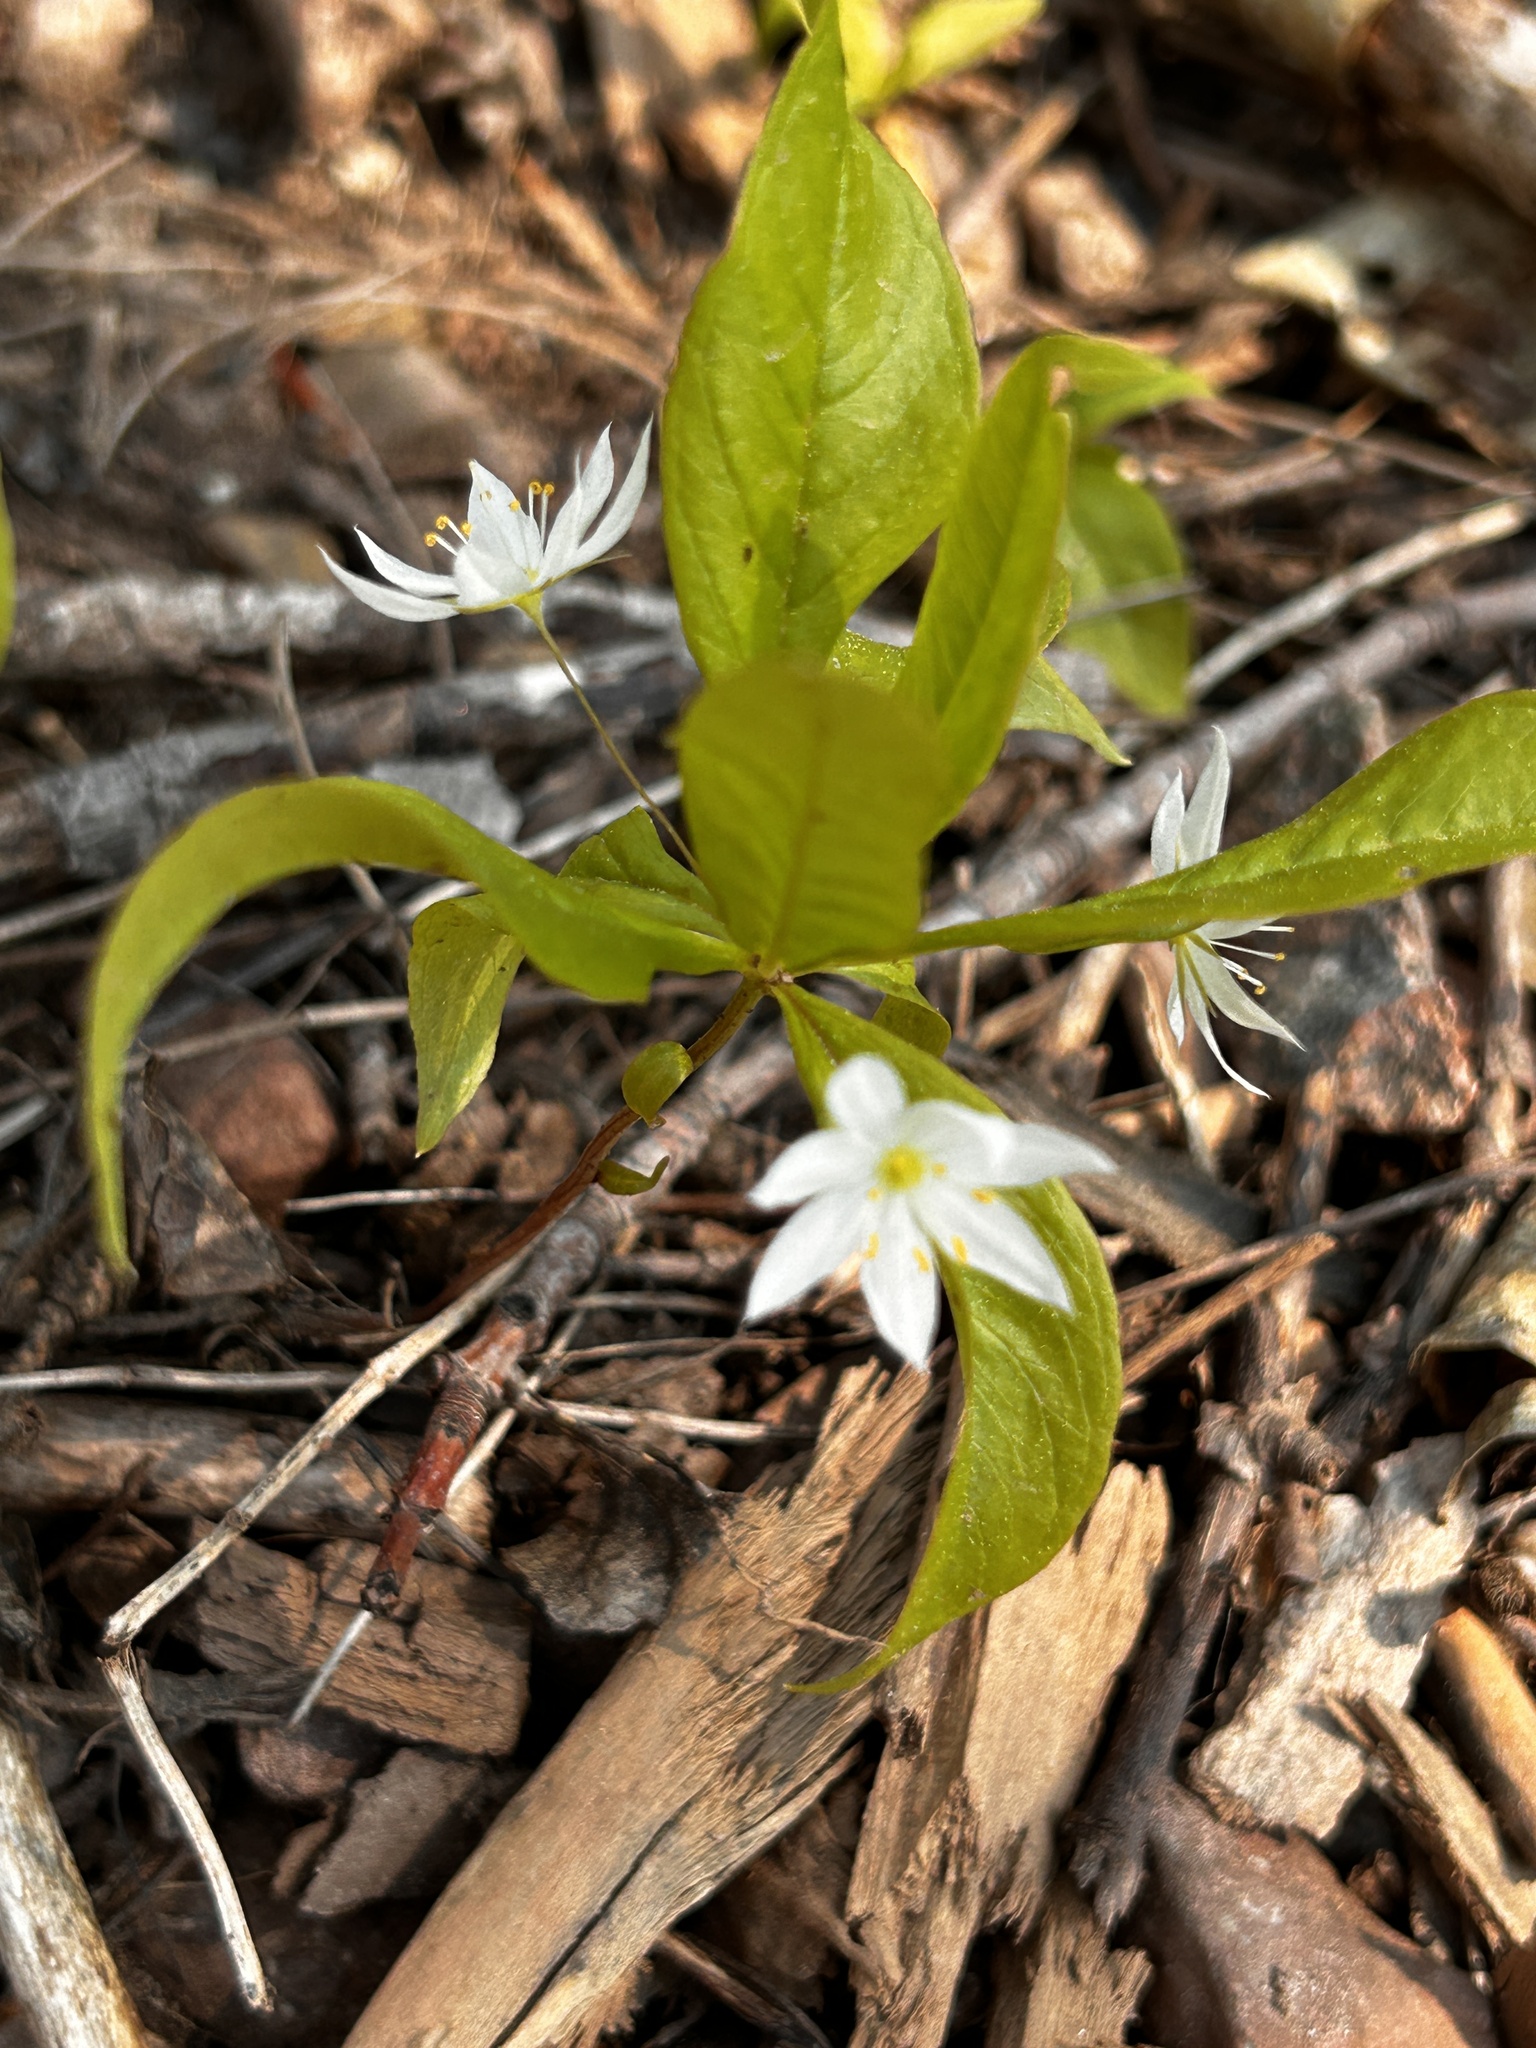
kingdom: Plantae
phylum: Tracheophyta
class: Magnoliopsida
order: Ericales
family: Primulaceae
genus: Lysimachia
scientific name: Lysimachia borealis
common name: American starflower
